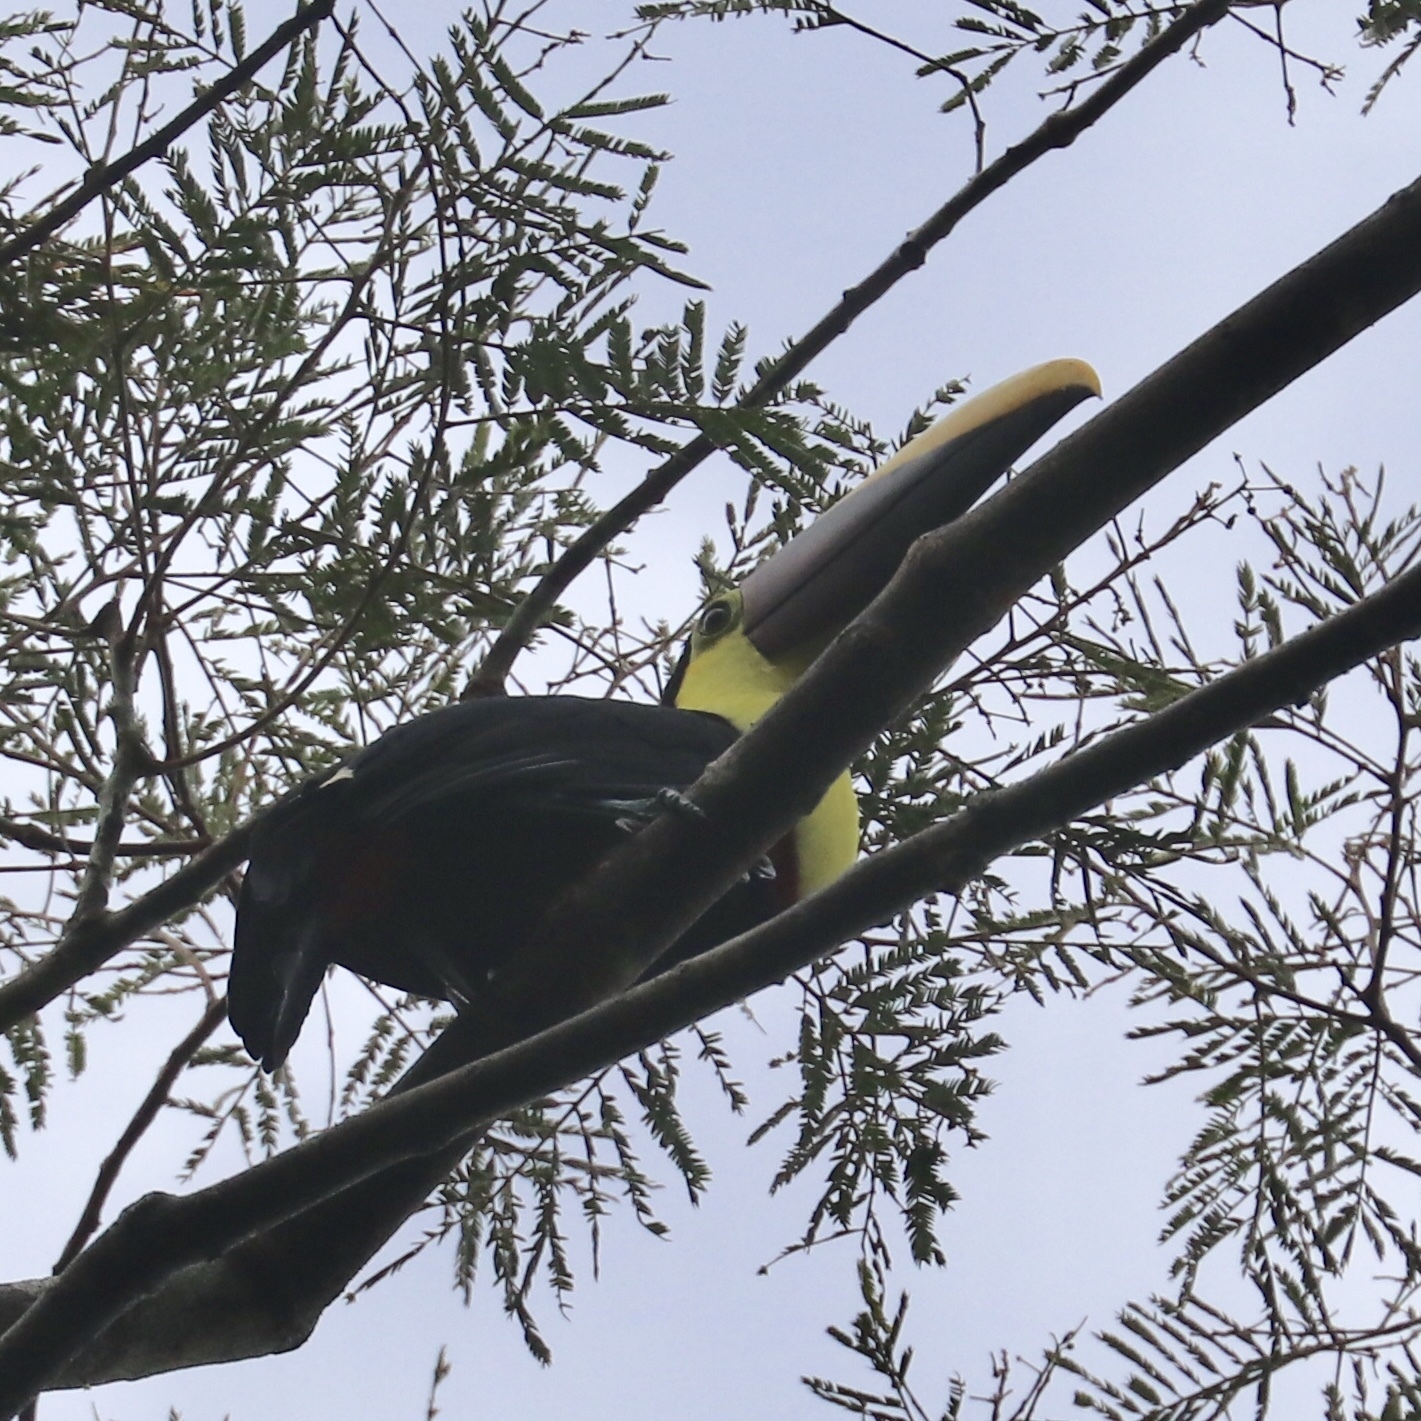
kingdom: Animalia
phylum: Chordata
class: Aves
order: Piciformes
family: Ramphastidae
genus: Ramphastos
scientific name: Ramphastos ambiguus
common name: Yellow-throated toucan
